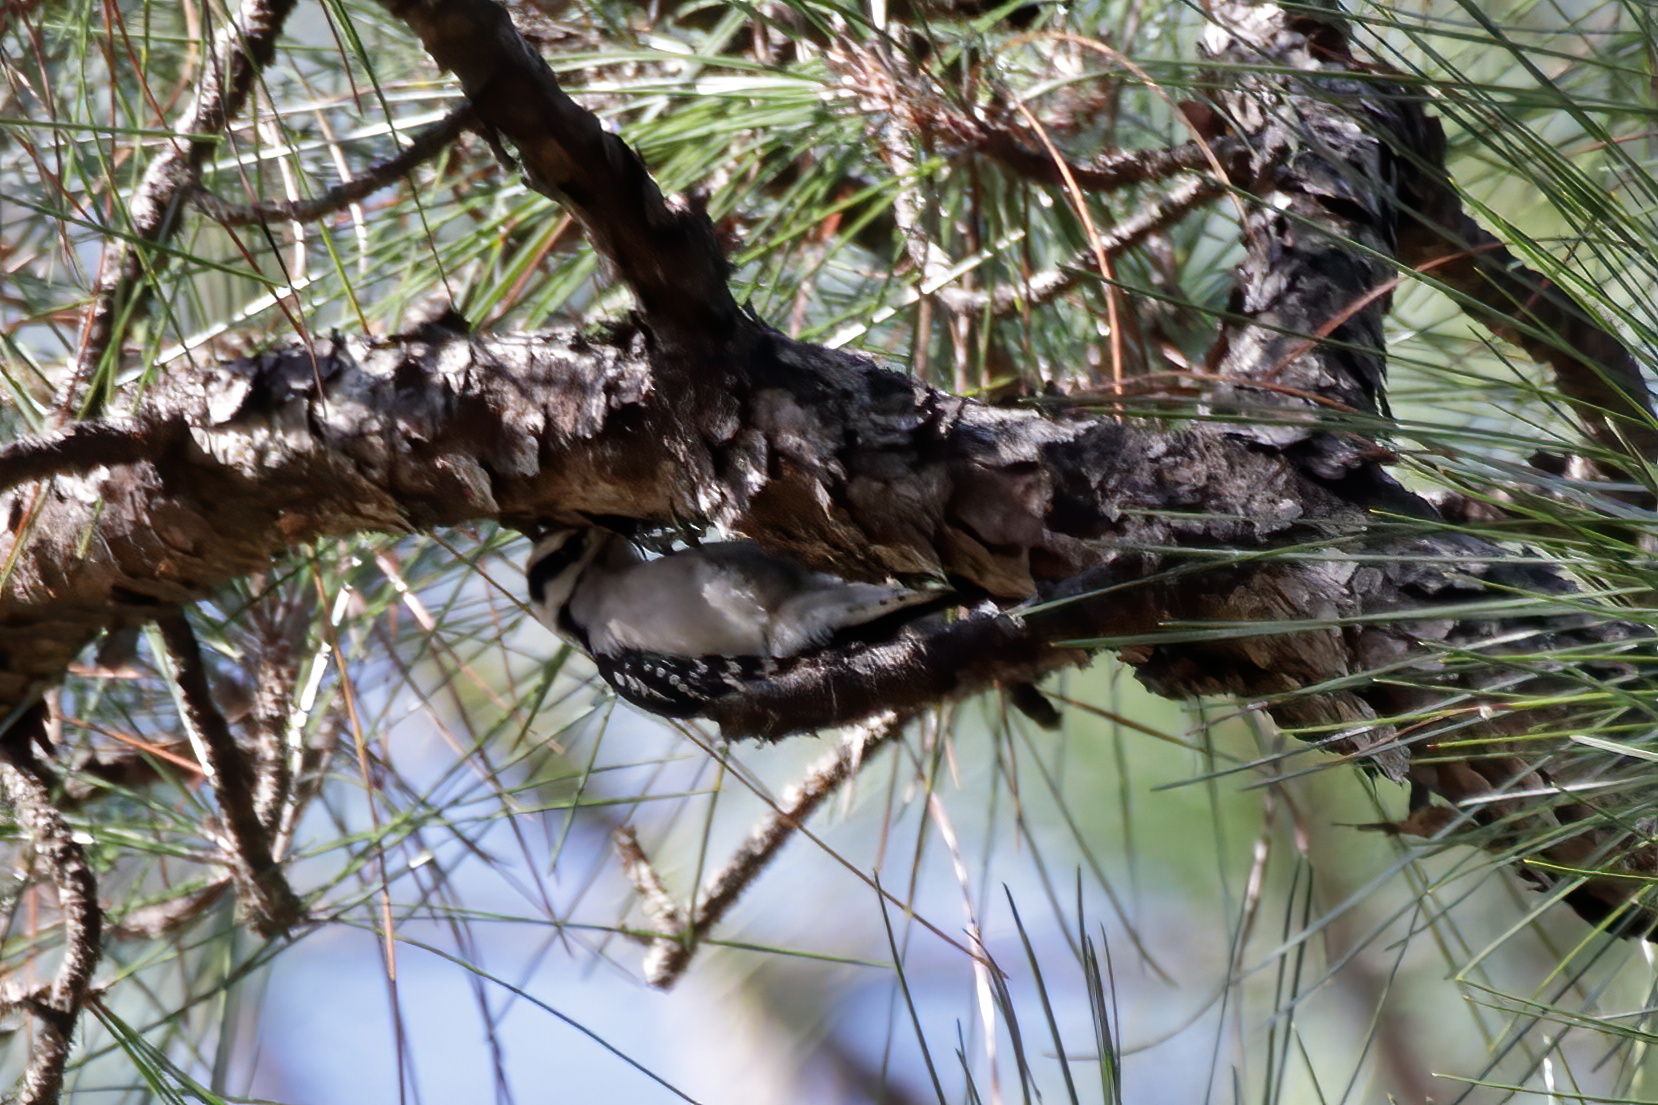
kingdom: Animalia
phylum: Chordata
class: Aves
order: Piciformes
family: Picidae
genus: Dryobates
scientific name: Dryobates pubescens
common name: Downy woodpecker
